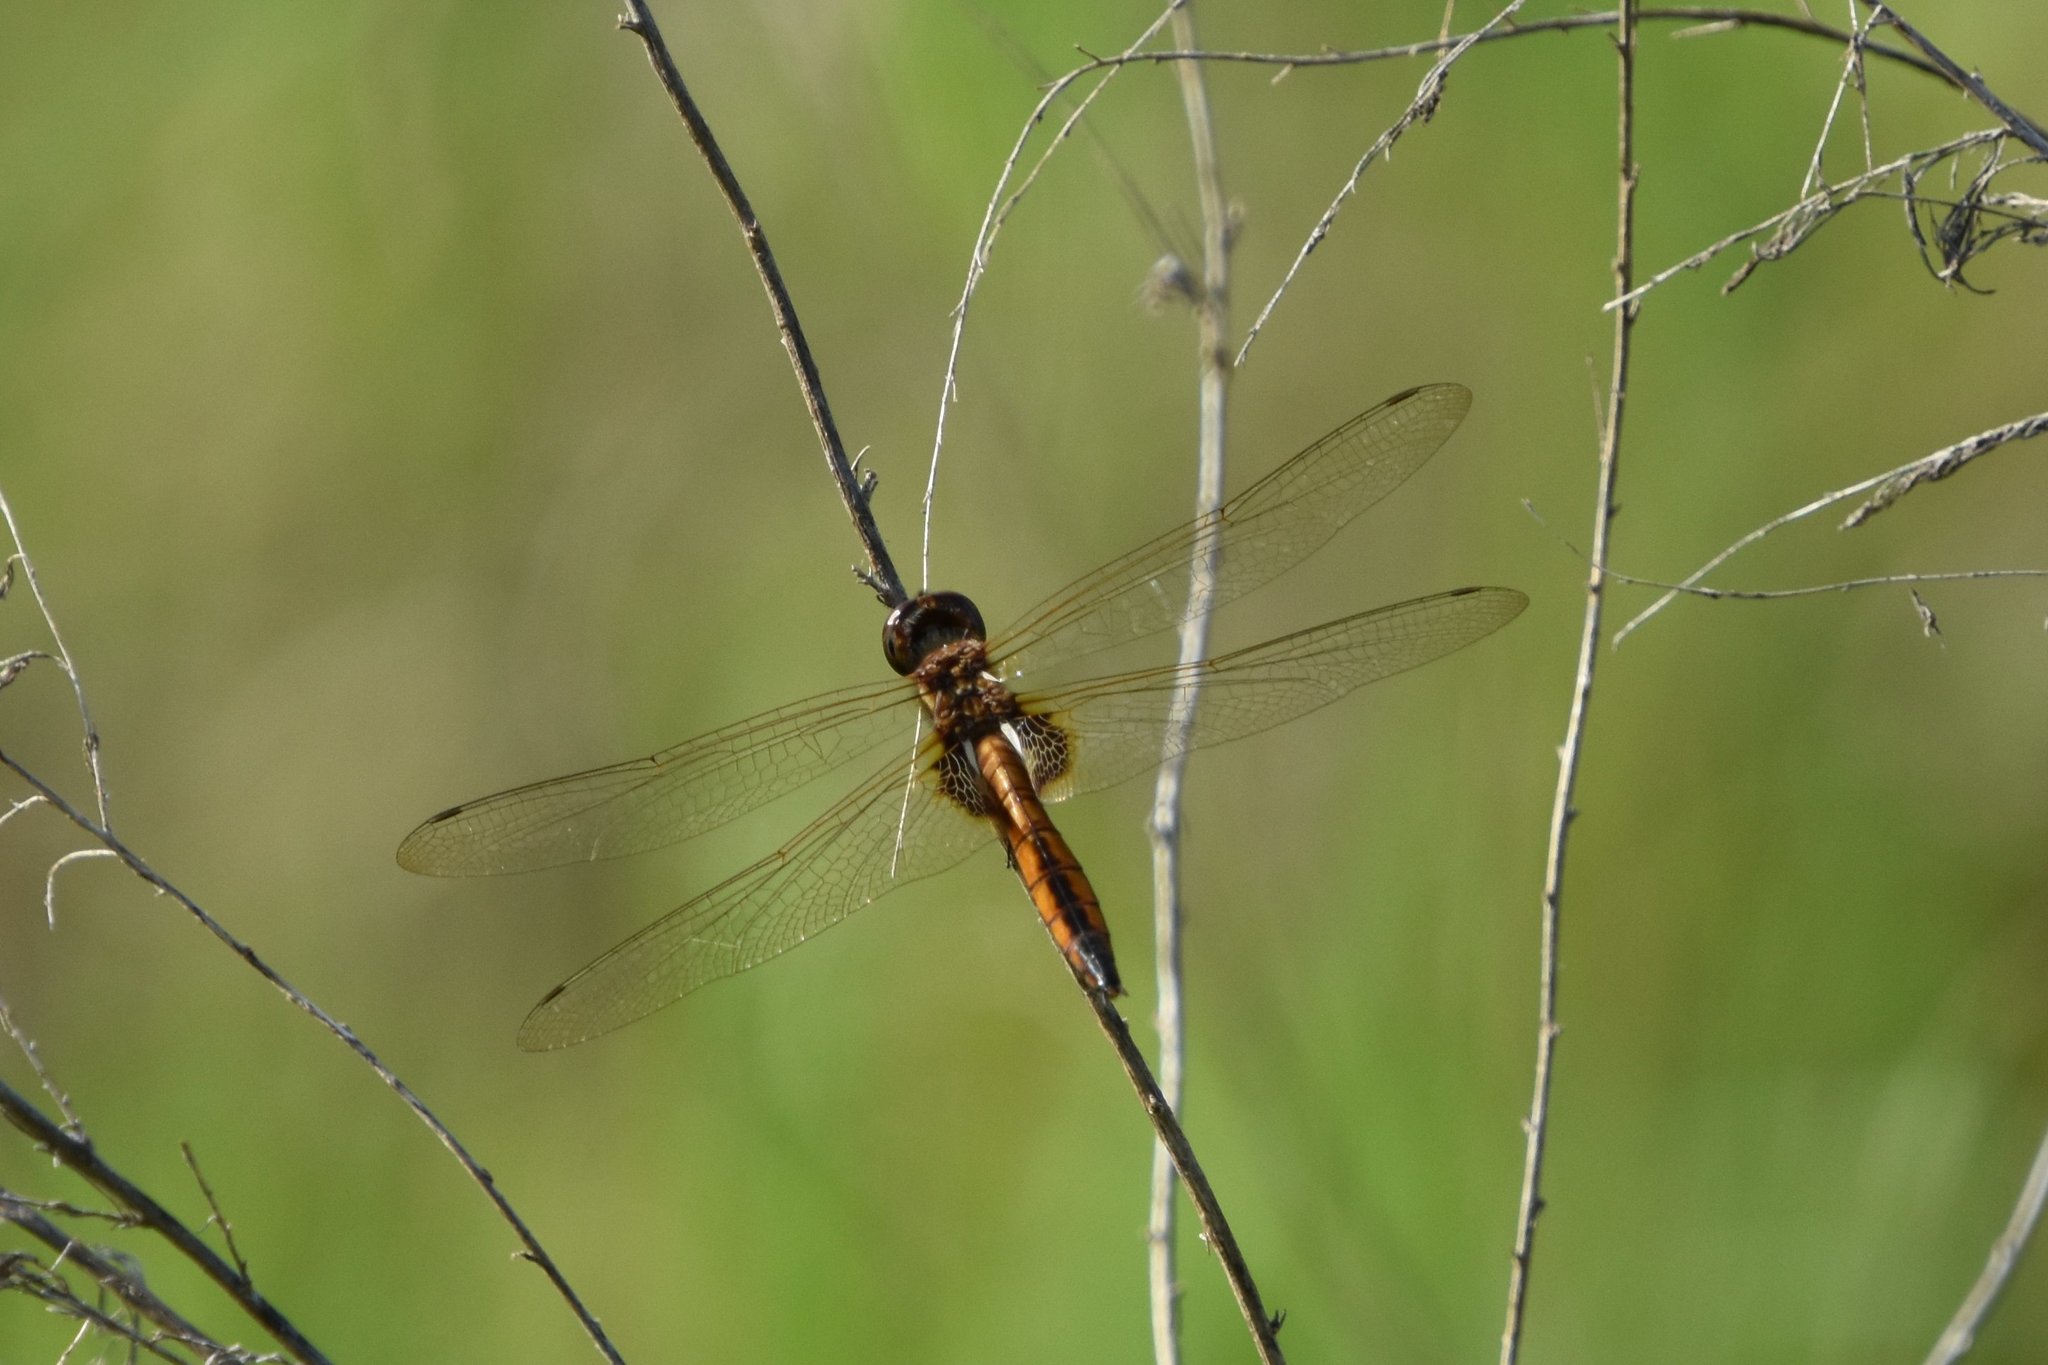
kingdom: Animalia
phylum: Arthropoda
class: Insecta
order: Odonata
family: Libellulidae
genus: Miathyria
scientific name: Miathyria marcella
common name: Hyacinth glider
